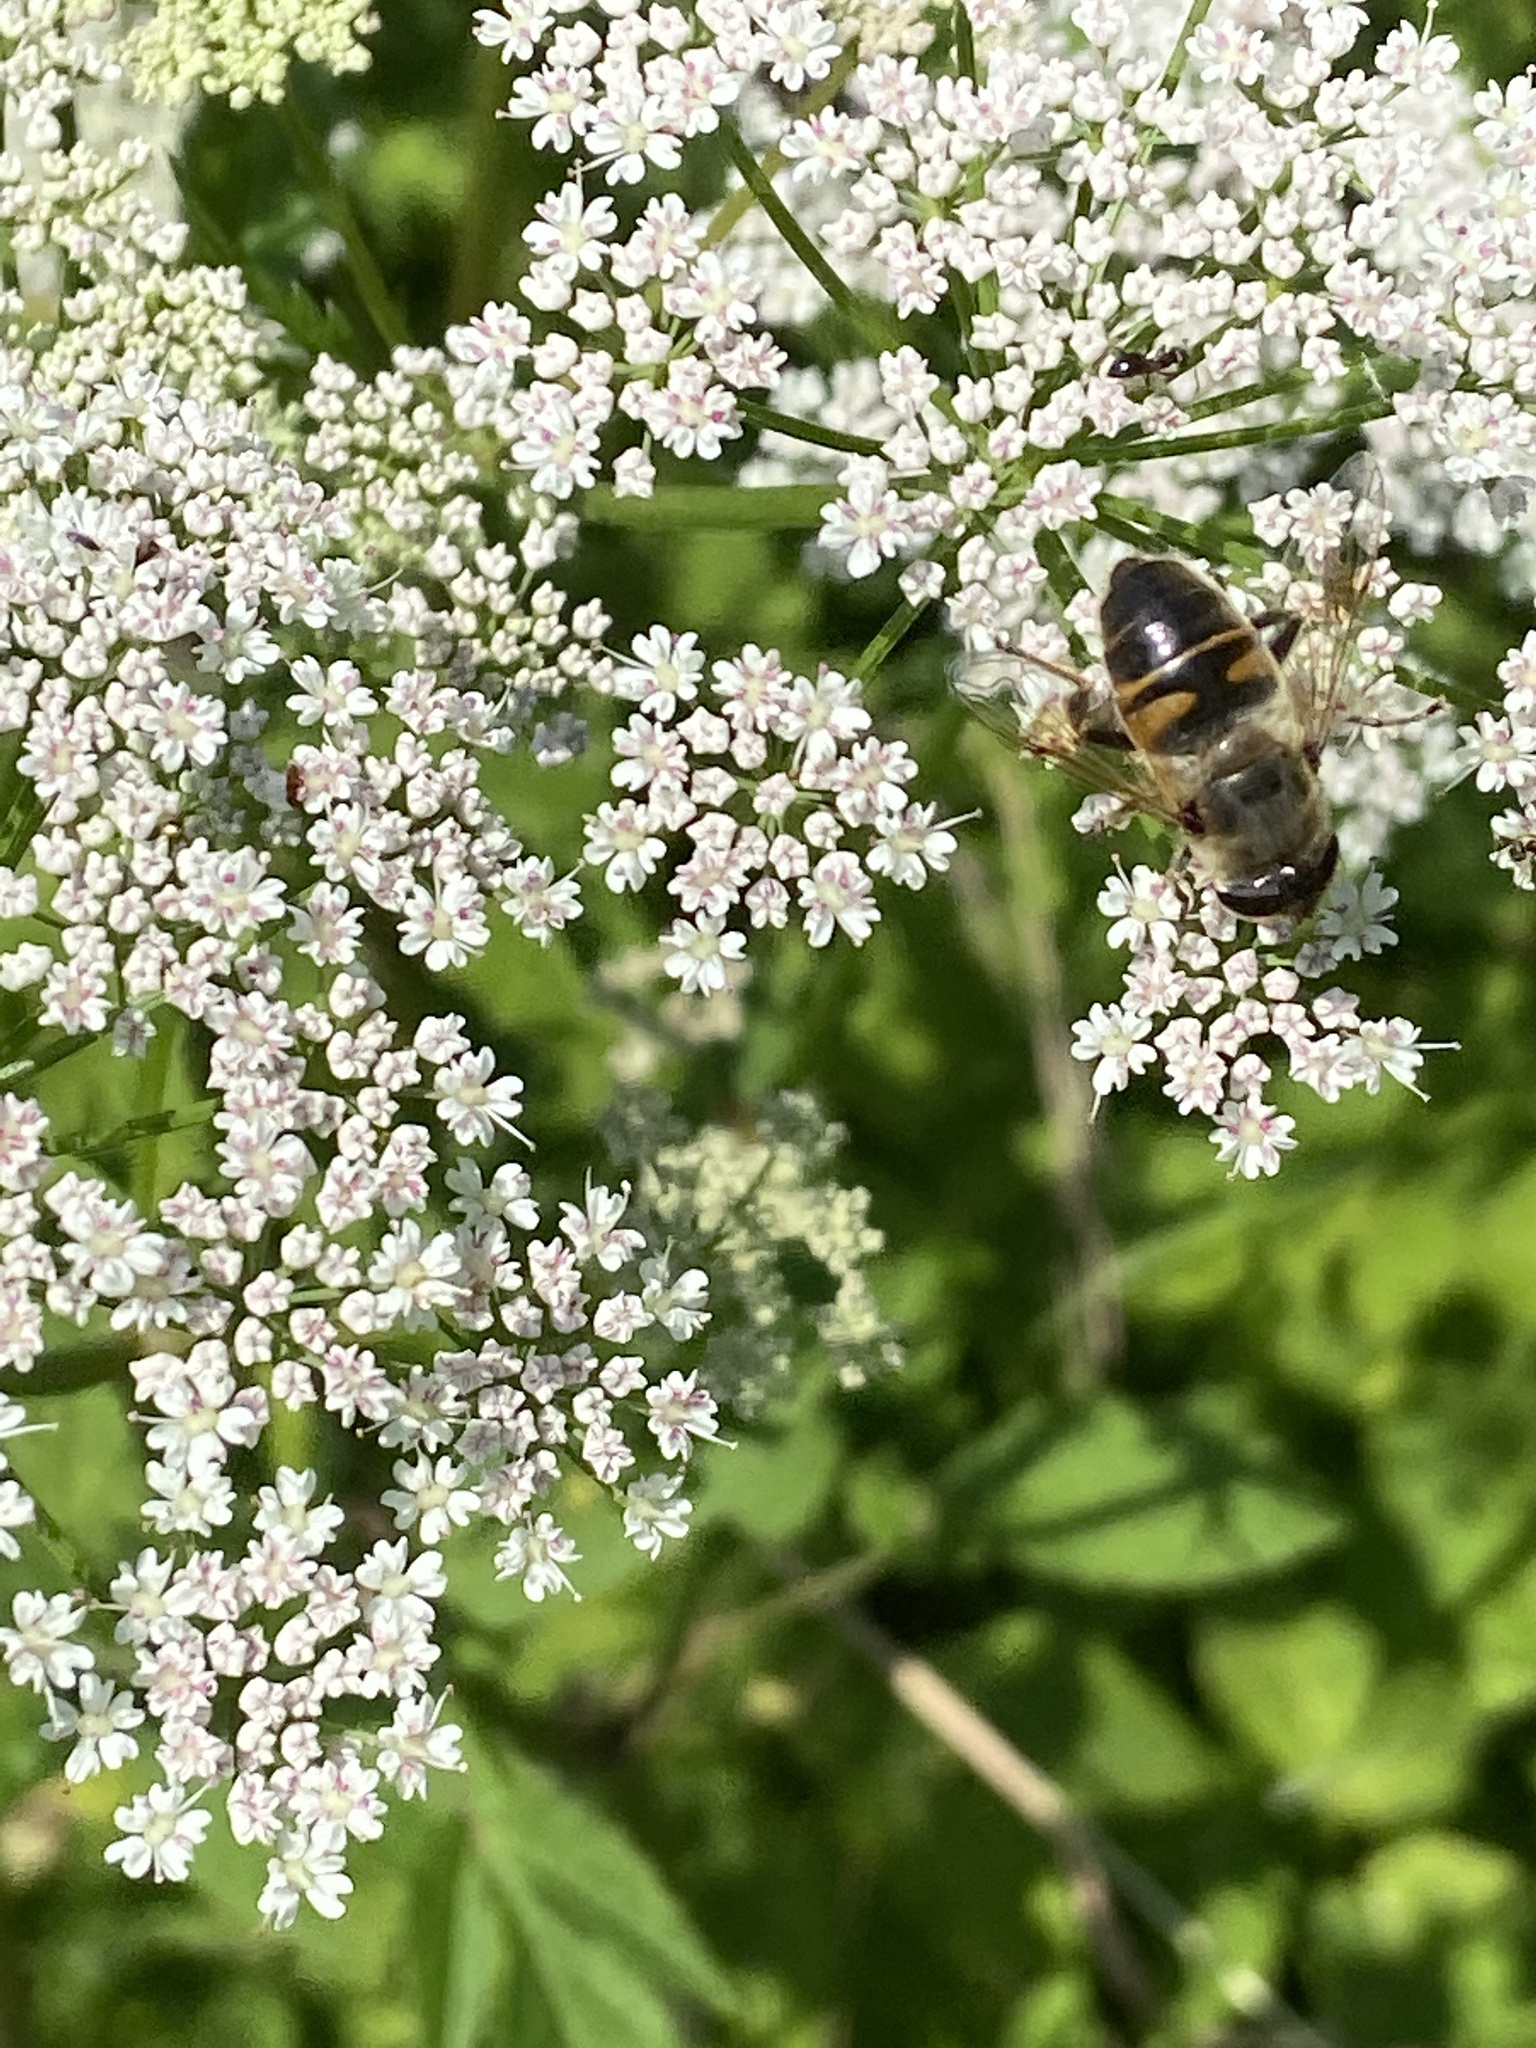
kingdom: Animalia
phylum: Arthropoda
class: Insecta
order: Diptera
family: Syrphidae
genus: Eristalis
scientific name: Eristalis tenax
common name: Drone fly
